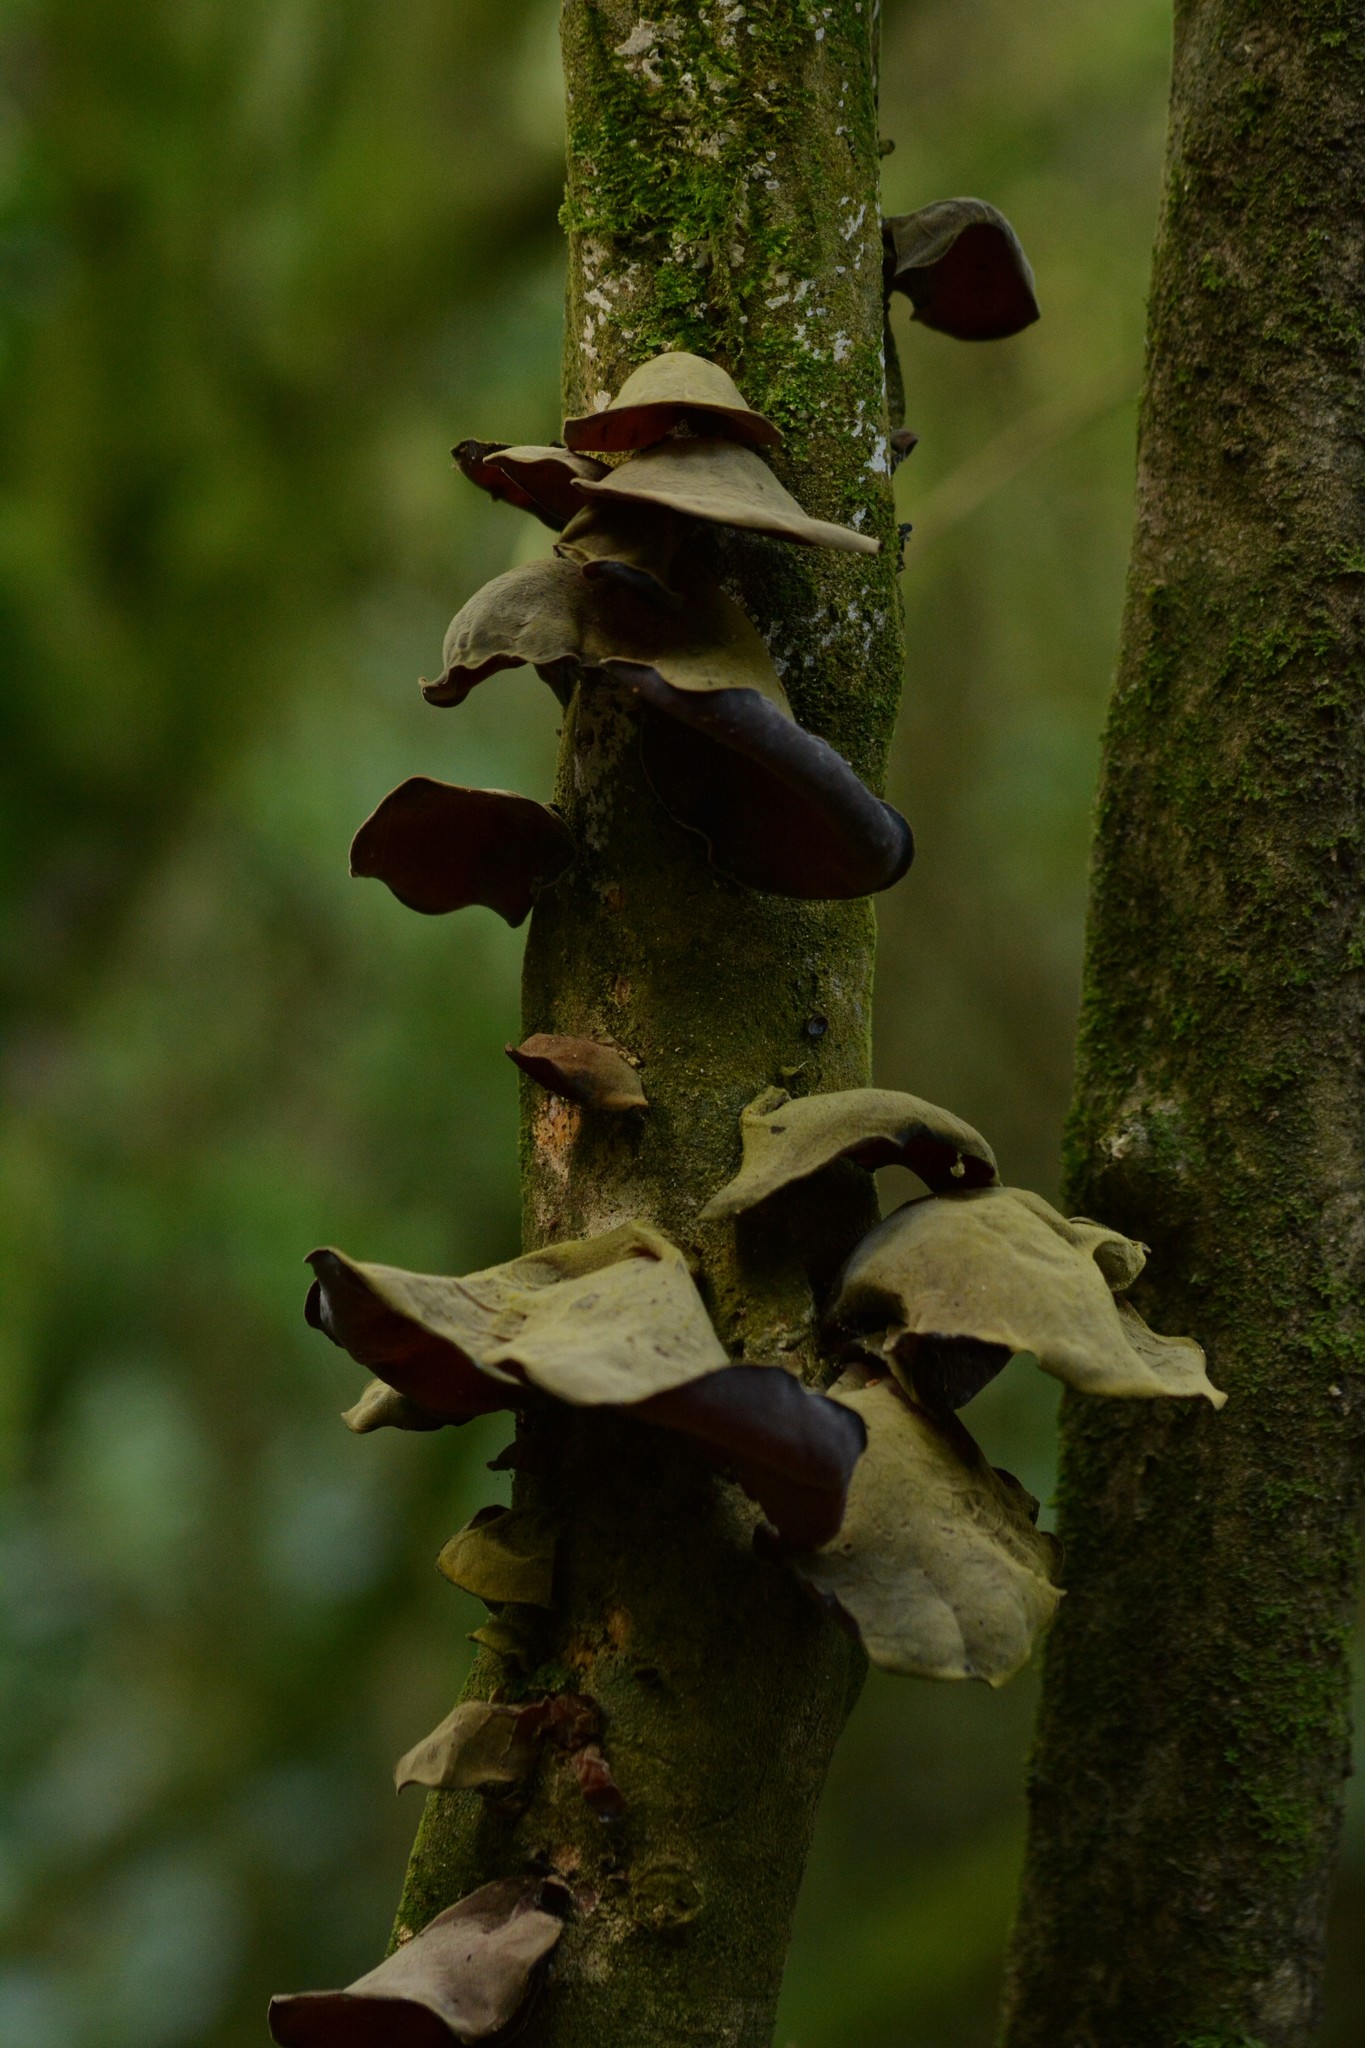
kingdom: Fungi
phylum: Basidiomycota
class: Agaricomycetes
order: Auriculariales
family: Auriculariaceae
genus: Auricularia
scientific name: Auricularia cornea
